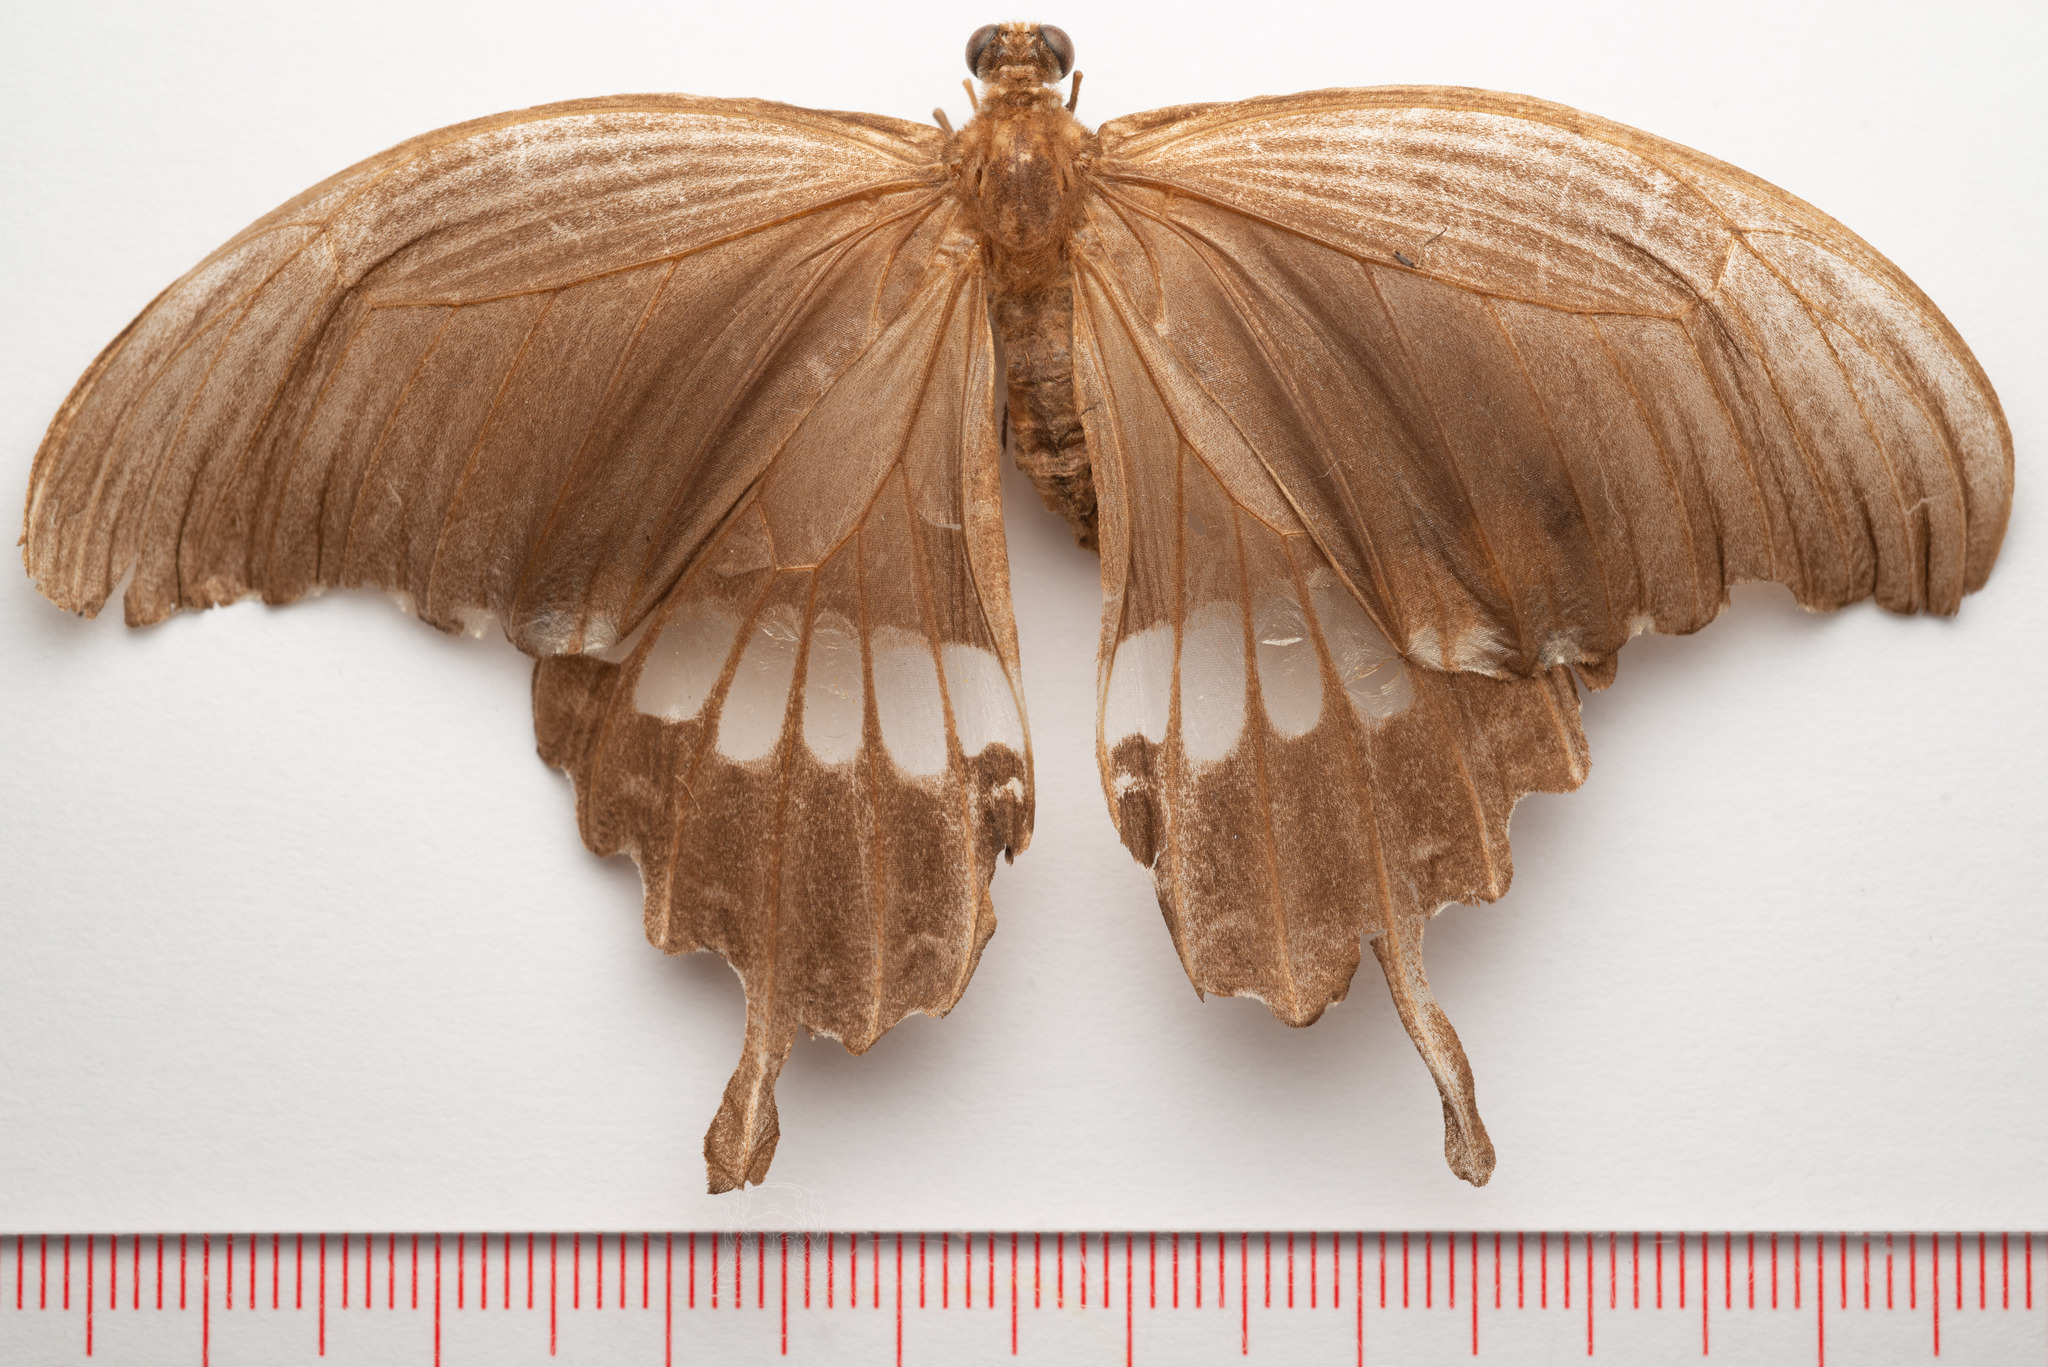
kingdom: Animalia
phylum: Arthropoda
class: Insecta
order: Lepidoptera
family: Papilionidae
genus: Papilio
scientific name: Papilio polytes
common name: Common mormon
